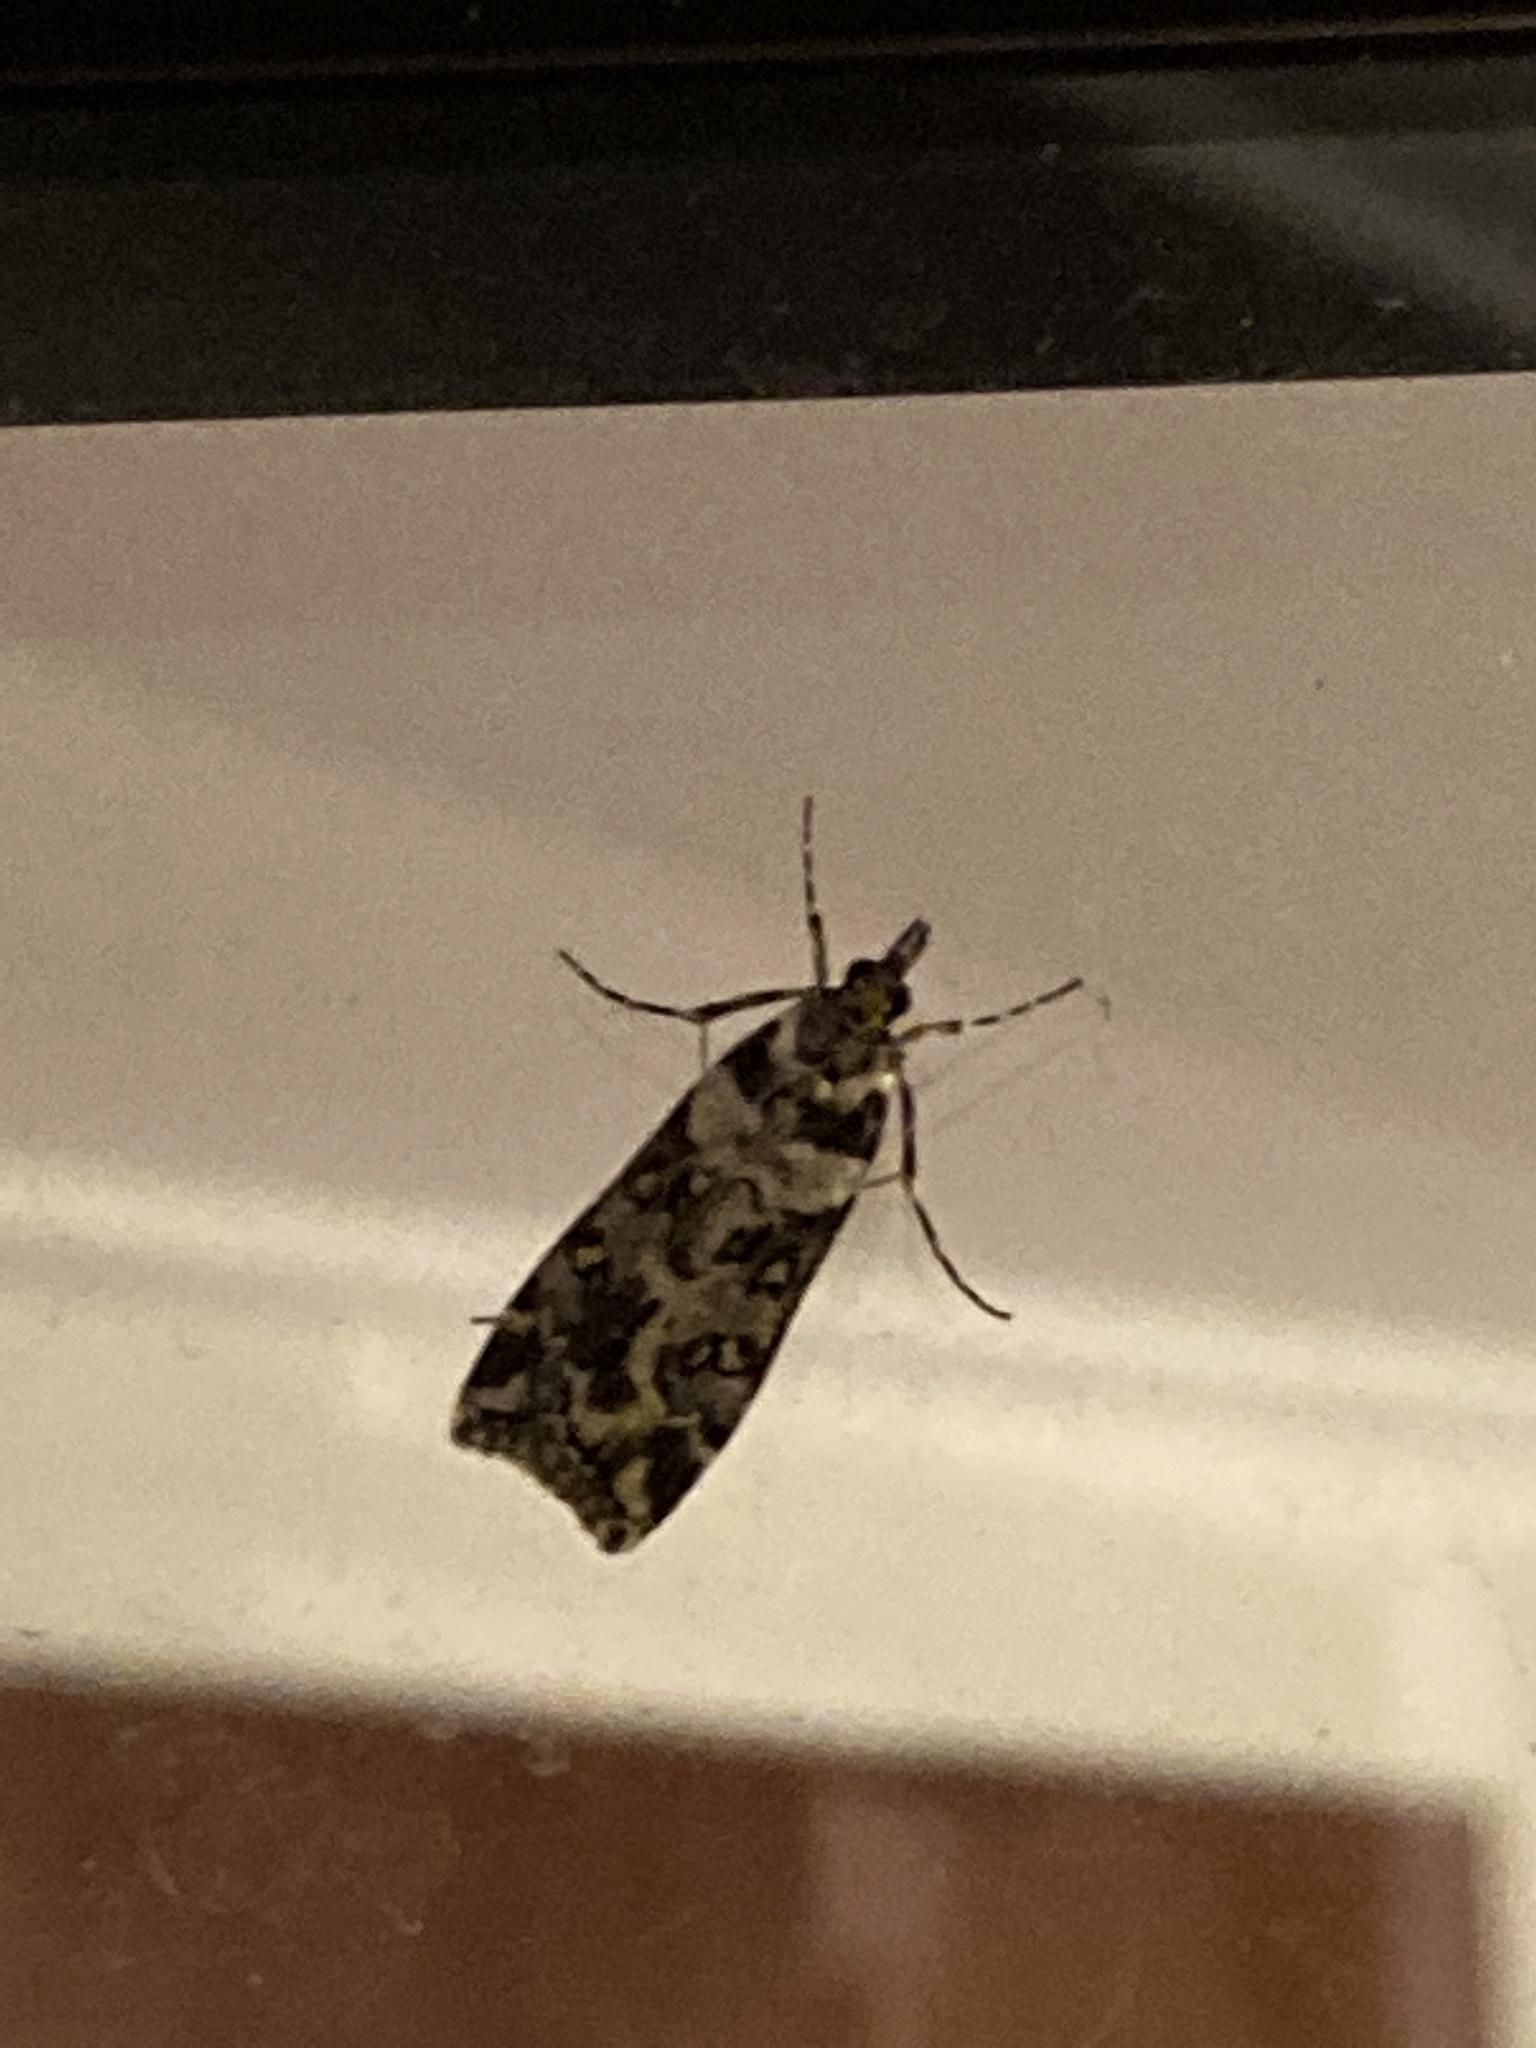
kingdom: Animalia
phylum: Arthropoda
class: Insecta
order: Lepidoptera
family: Crambidae
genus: Eudonia
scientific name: Eudonia diphtheralis
